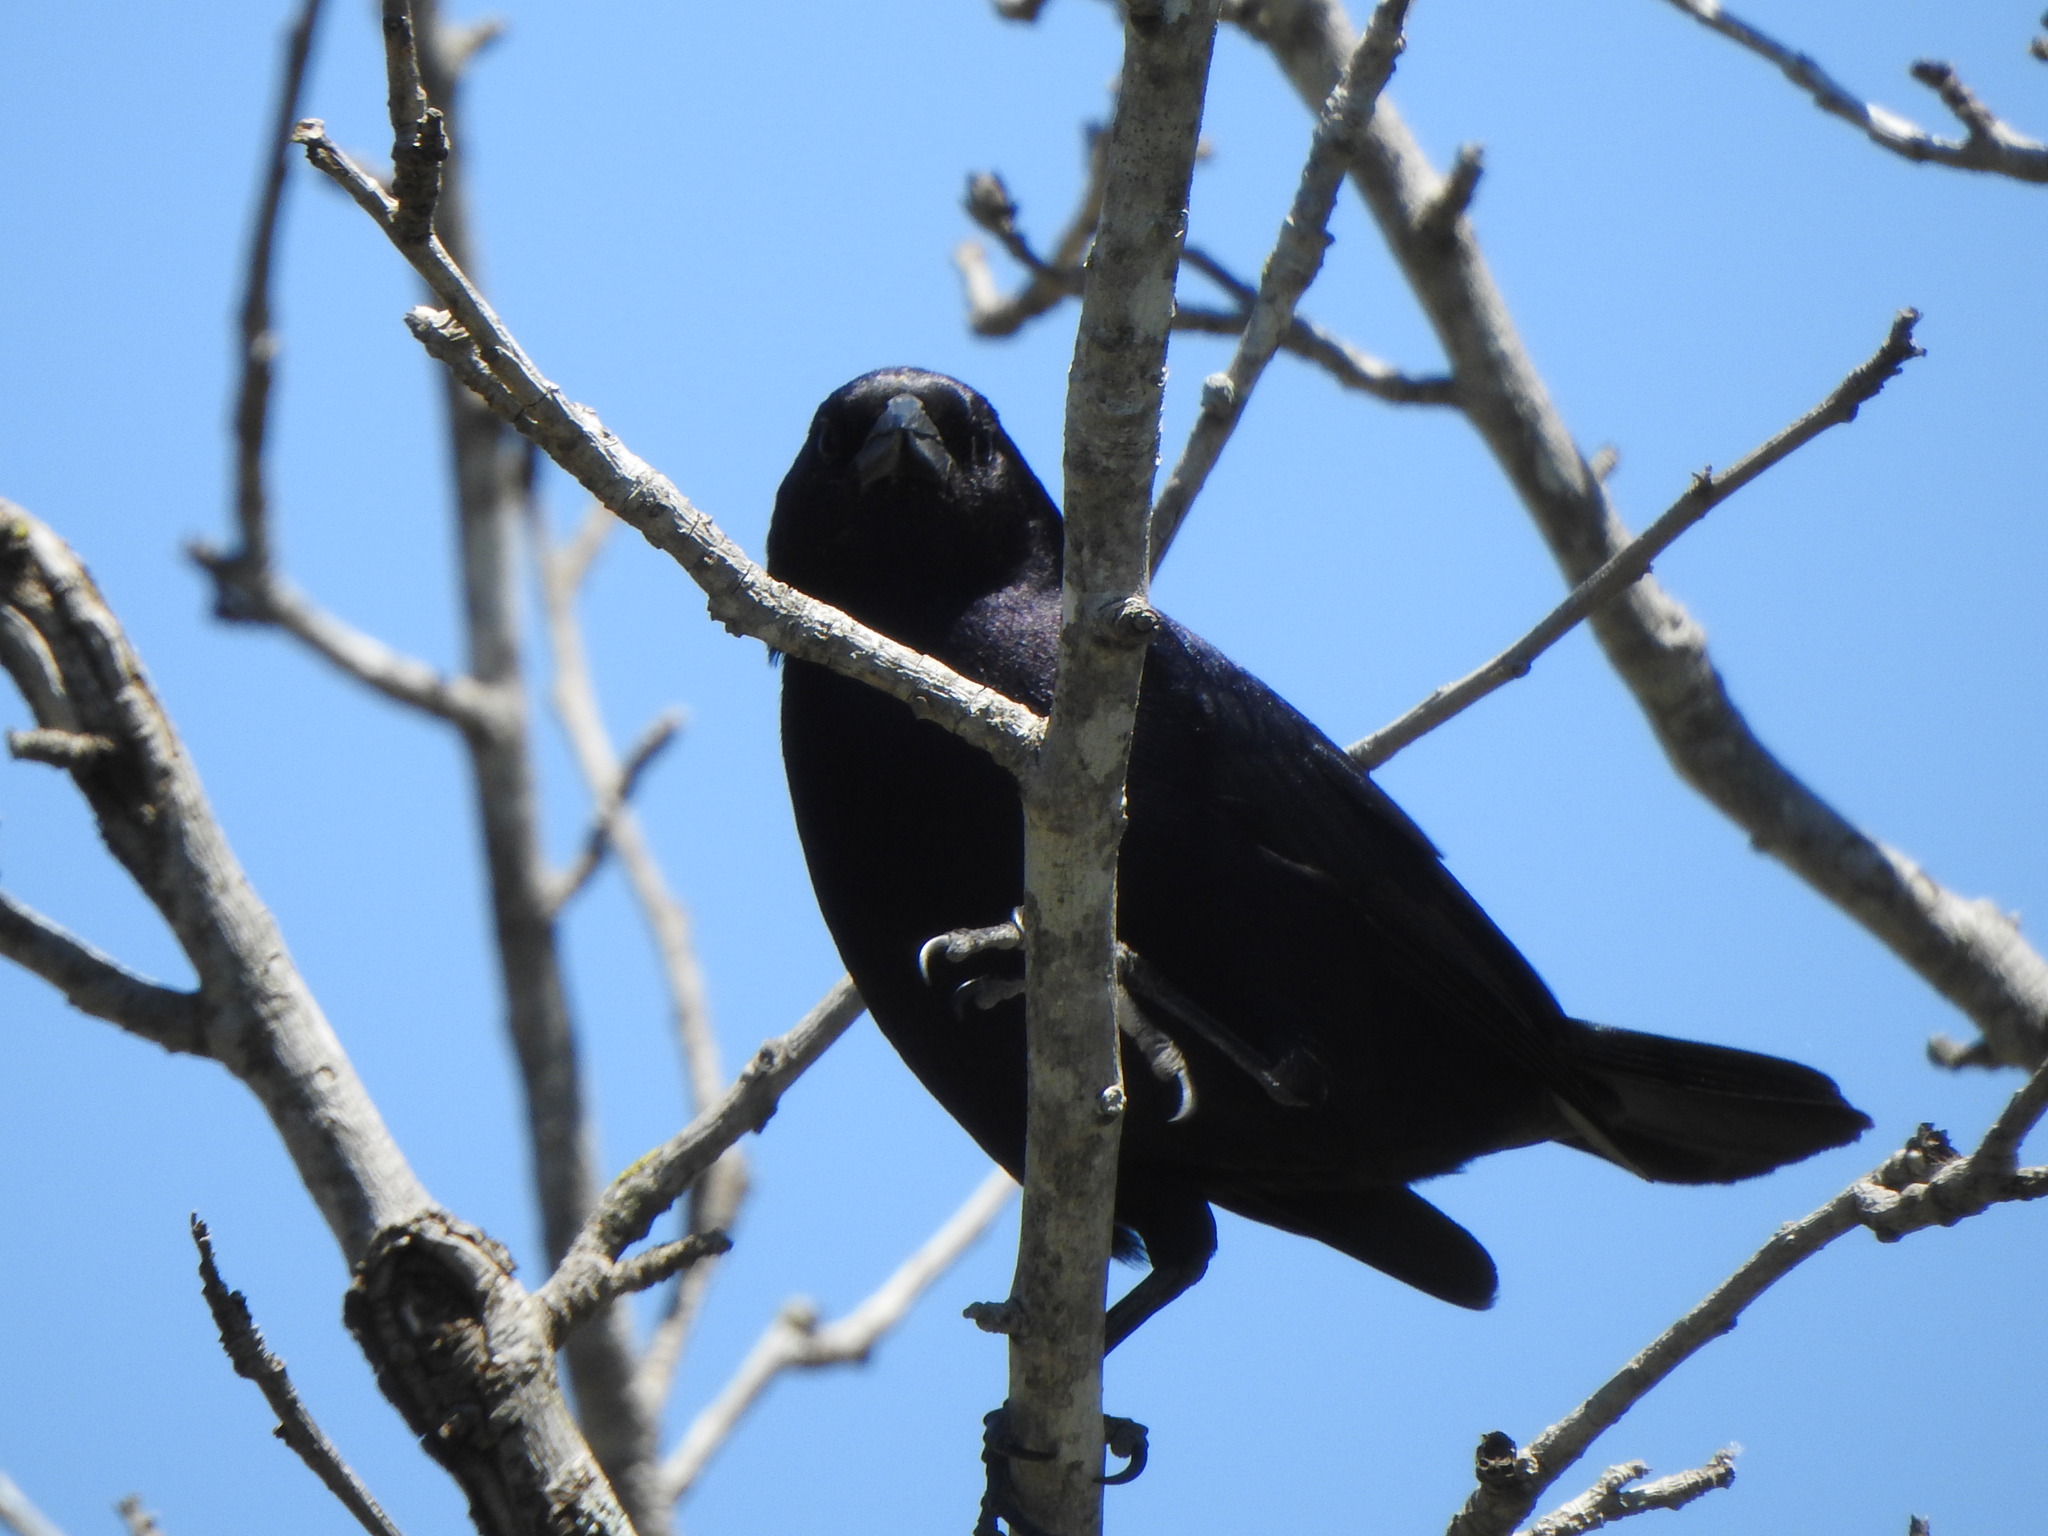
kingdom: Animalia
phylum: Chordata
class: Aves
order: Passeriformes
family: Icteridae
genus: Molothrus
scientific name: Molothrus bonariensis
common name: Shiny cowbird
